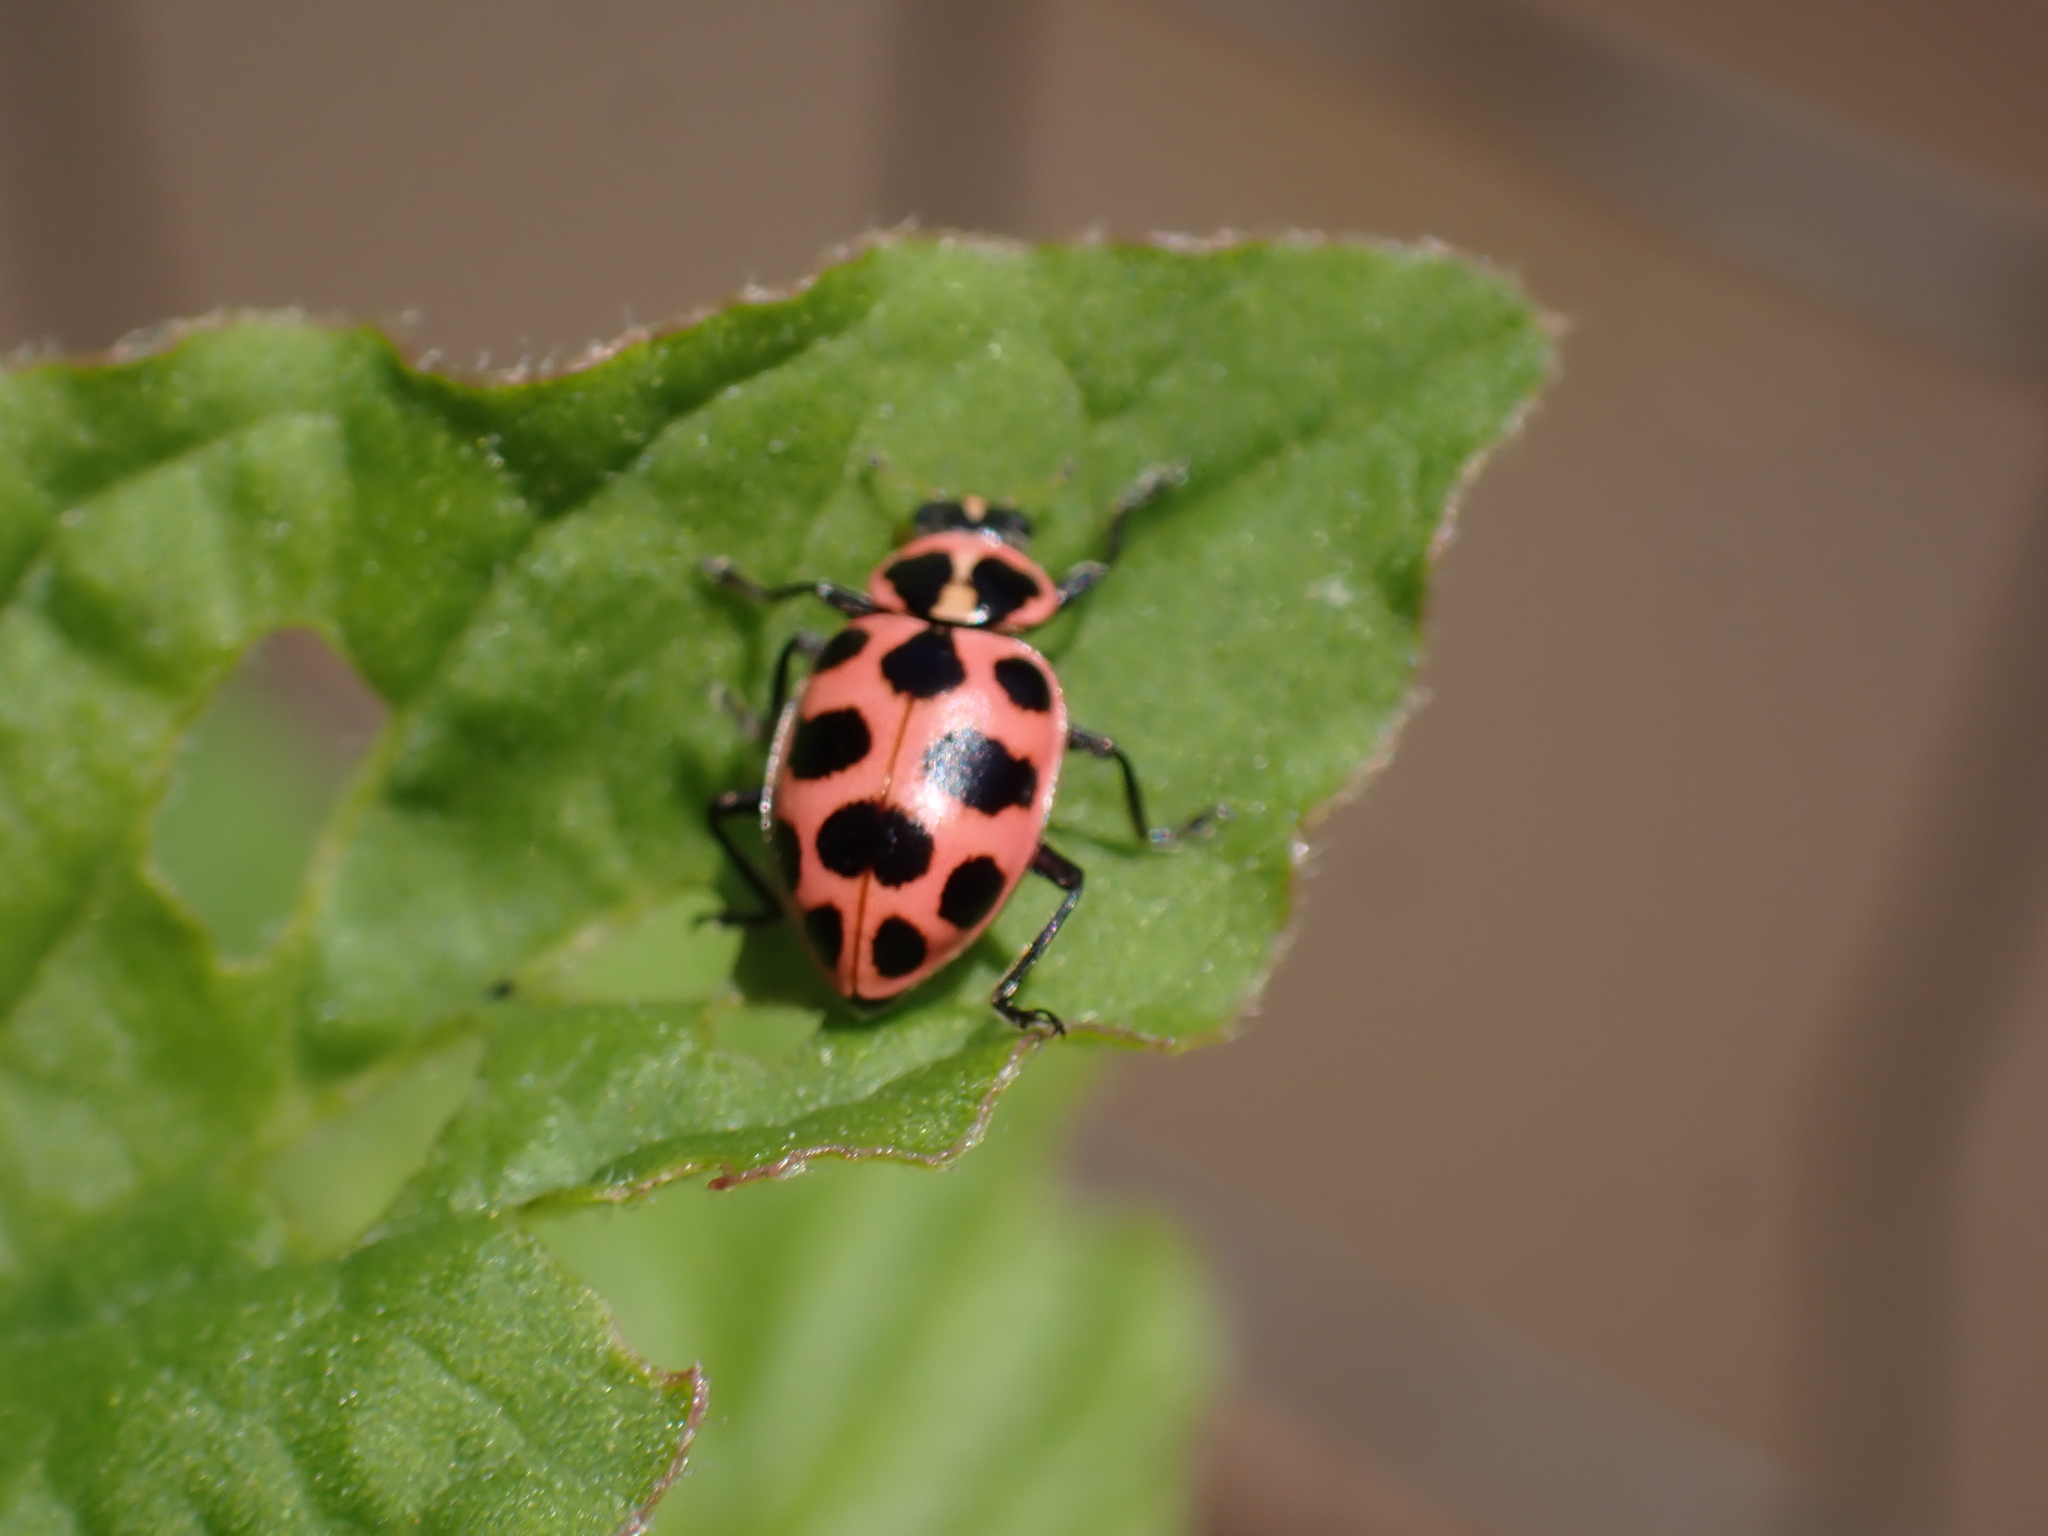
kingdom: Animalia
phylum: Arthropoda
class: Insecta
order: Coleoptera
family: Coccinellidae
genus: Coleomegilla
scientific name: Coleomegilla maculata
